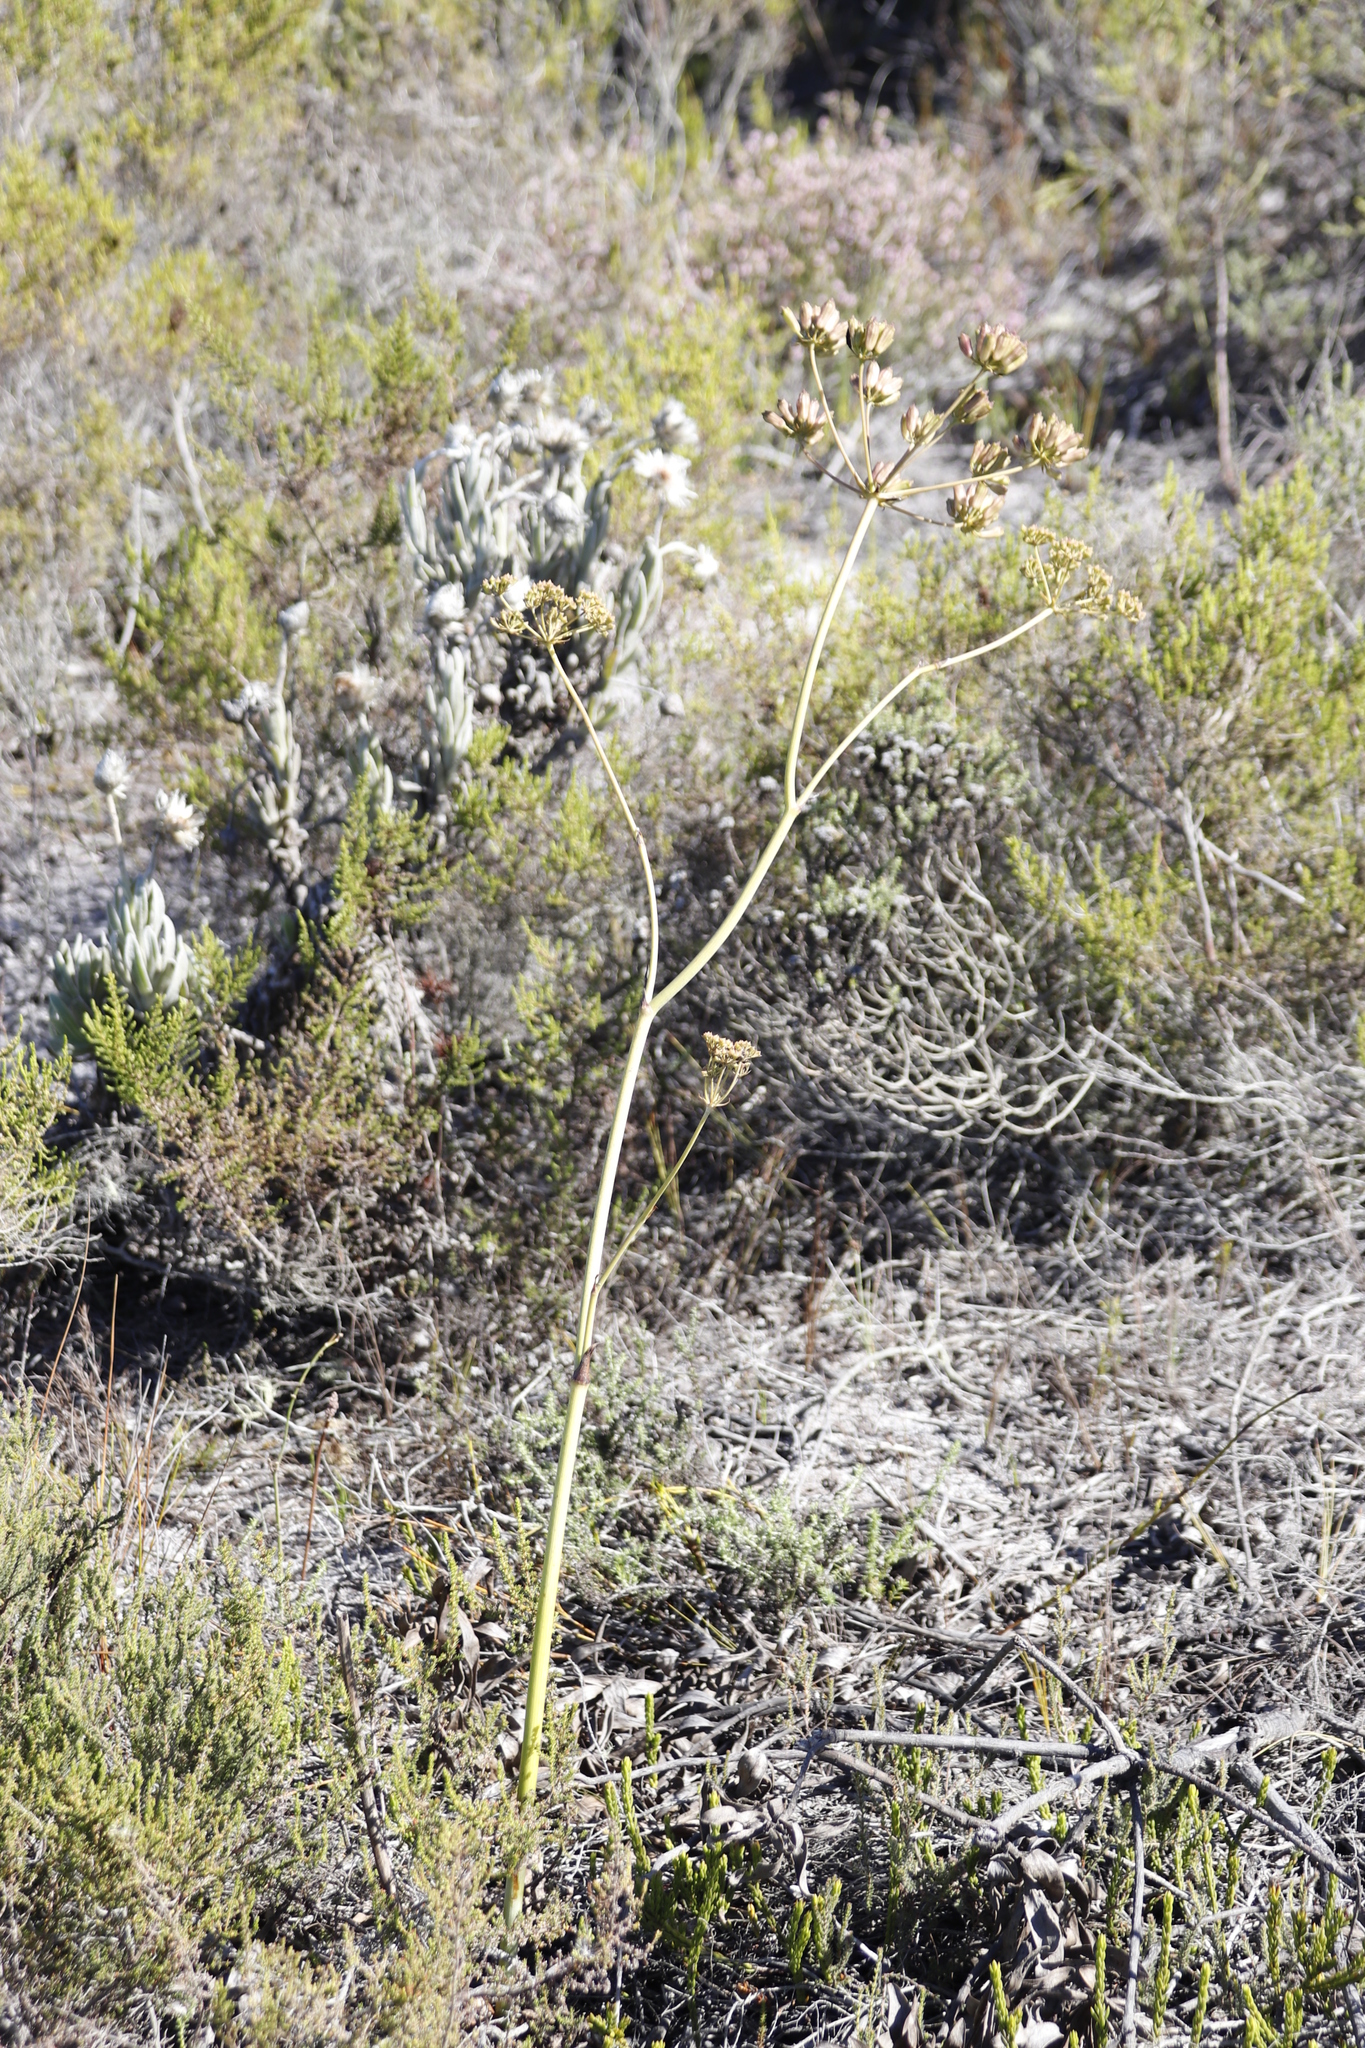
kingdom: Plantae
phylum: Tracheophyta
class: Magnoliopsida
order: Apiales
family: Apiaceae
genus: Lichtensteinia
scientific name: Lichtensteinia lacera
